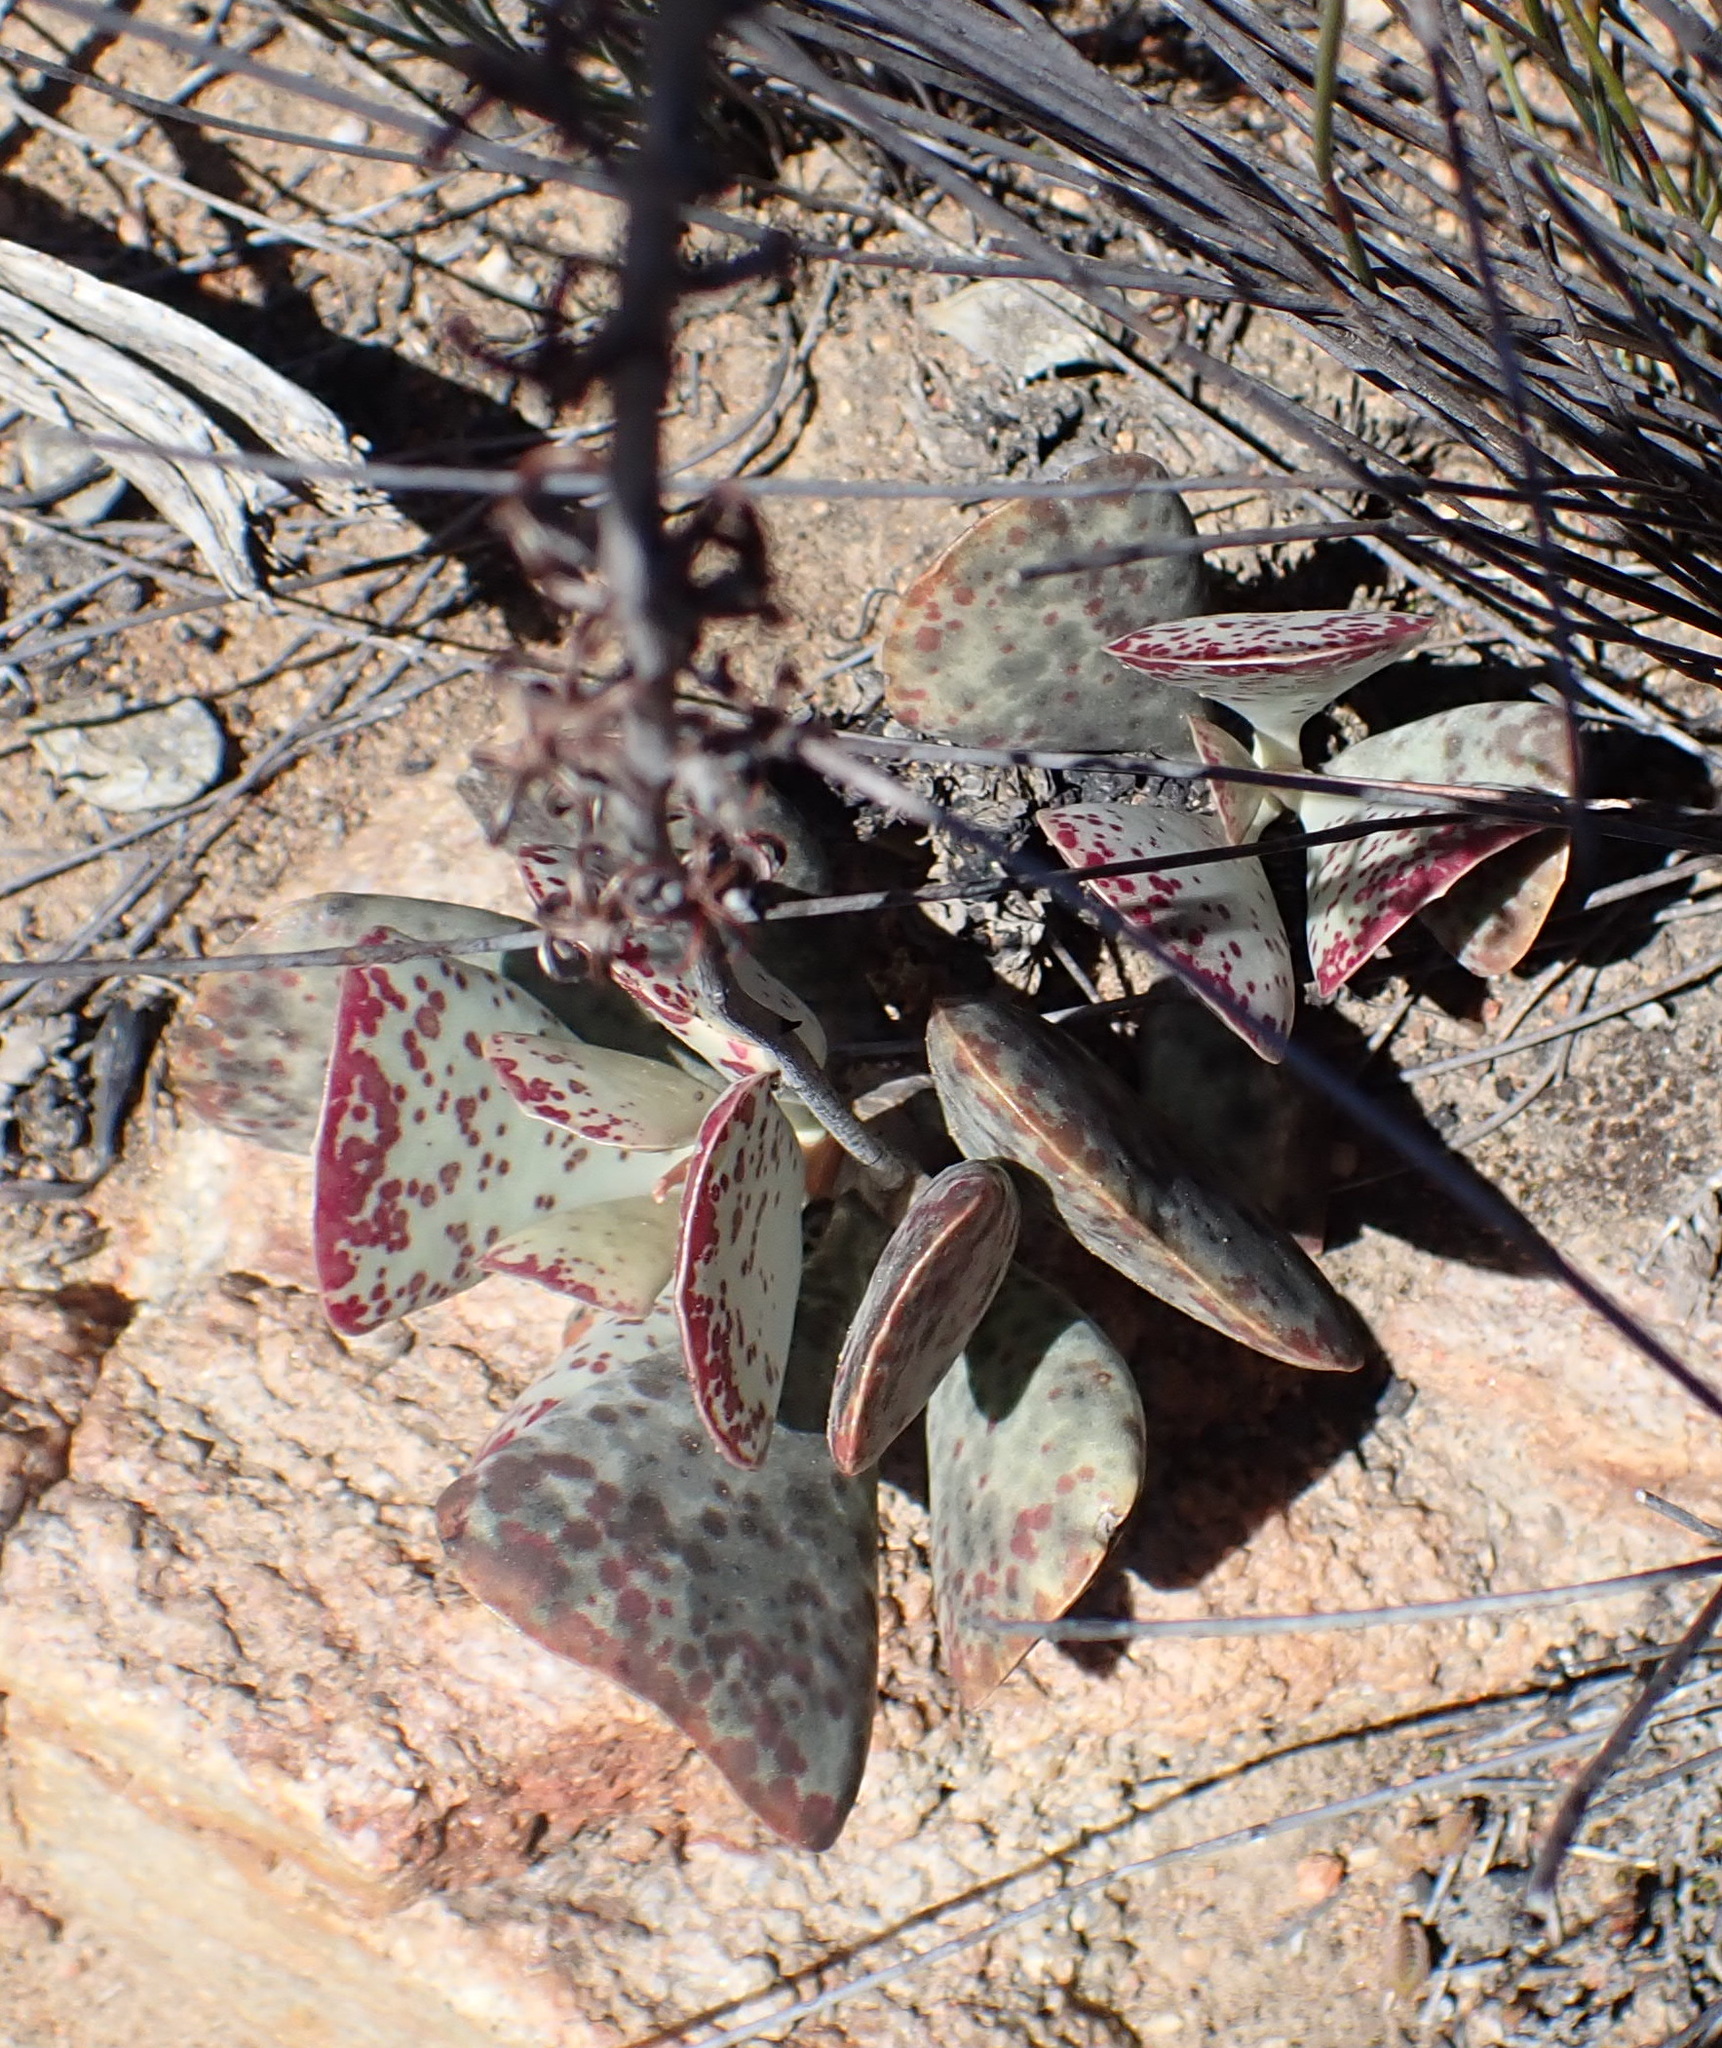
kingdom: Plantae
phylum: Tracheophyta
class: Magnoliopsida
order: Saxifragales
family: Crassulaceae
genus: Adromischus
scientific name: Adromischus triflorus
